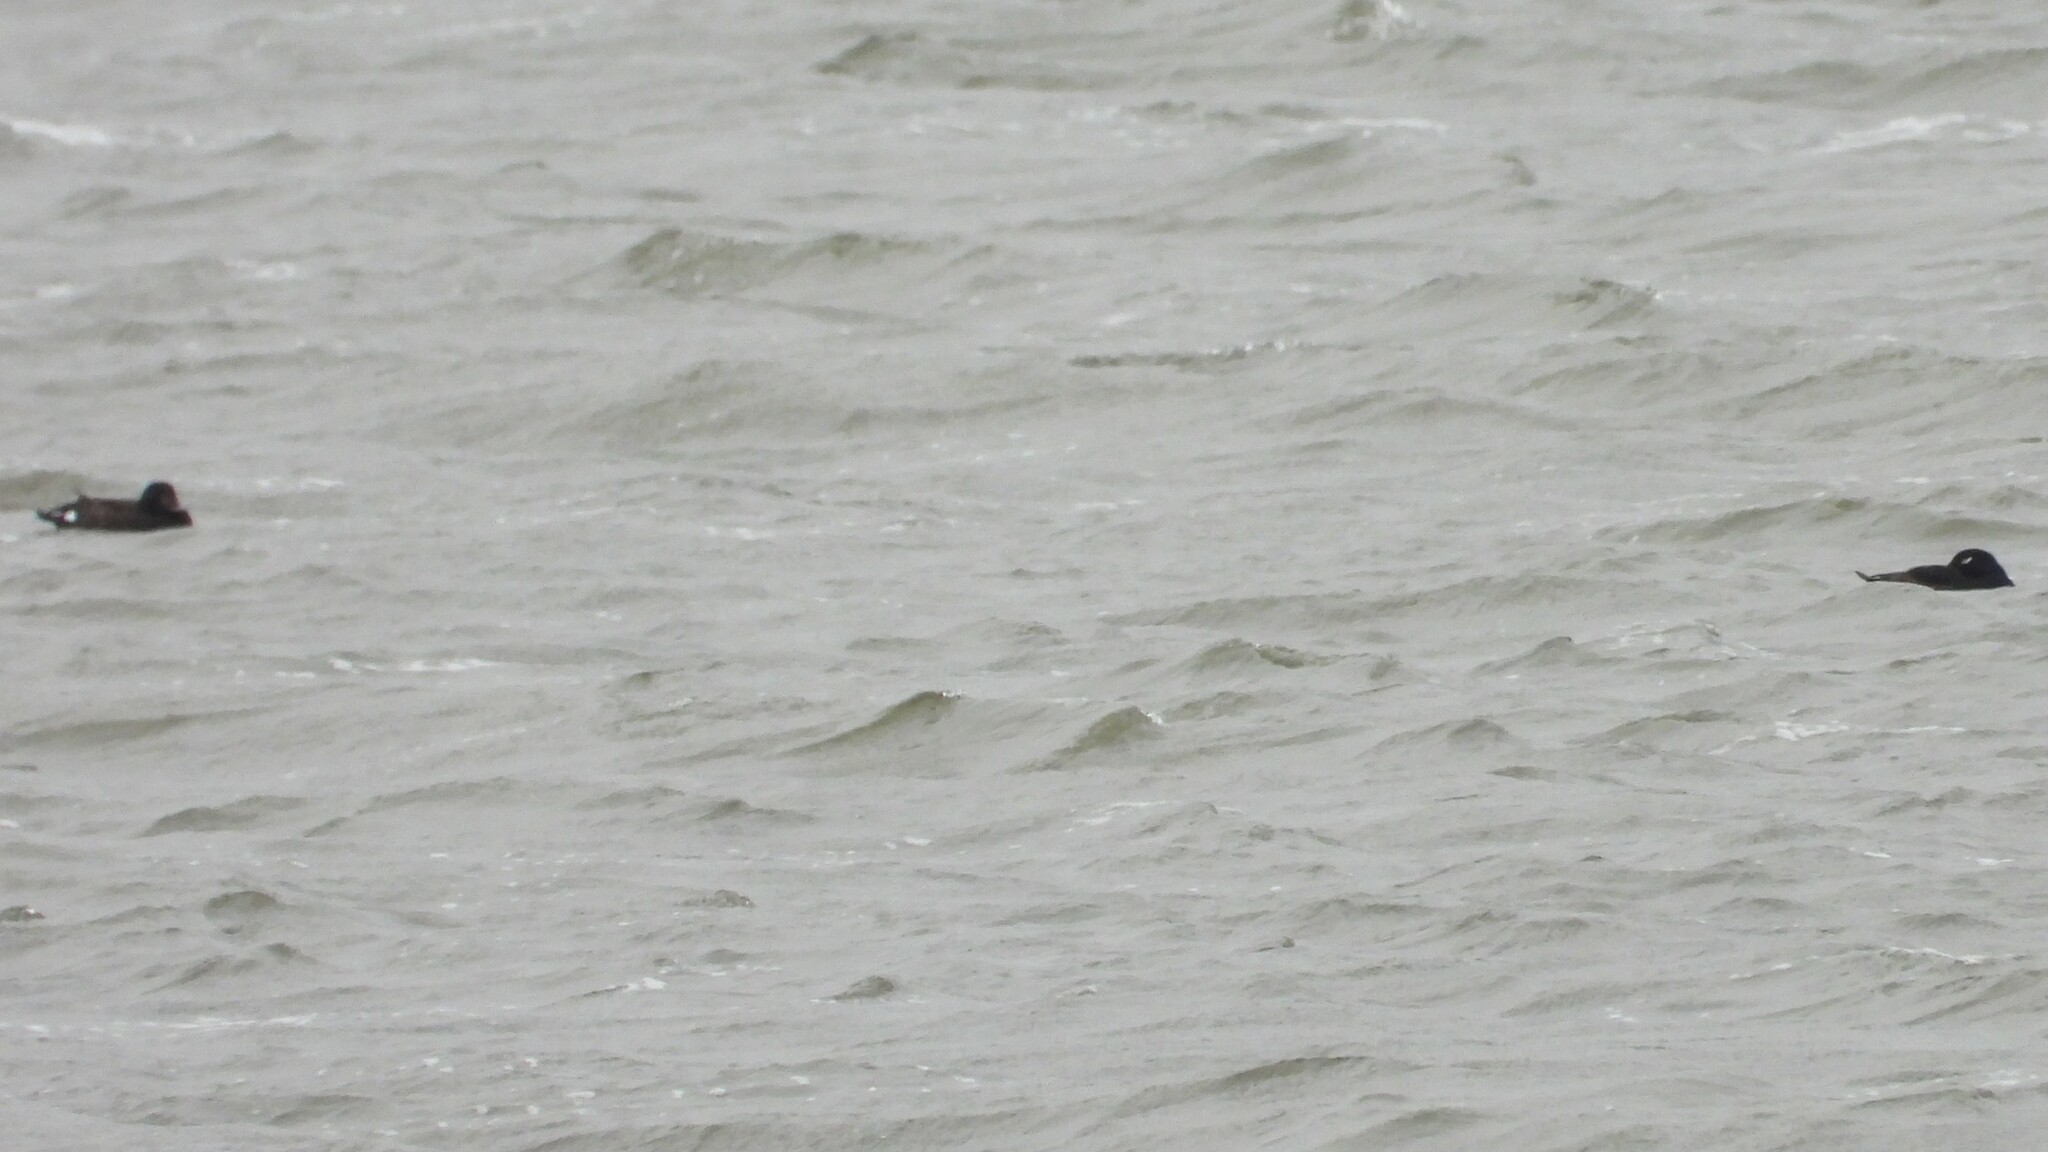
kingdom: Animalia
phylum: Chordata
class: Aves
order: Anseriformes
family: Anatidae
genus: Melanitta
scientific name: Melanitta deglandi
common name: White-winged scoter
